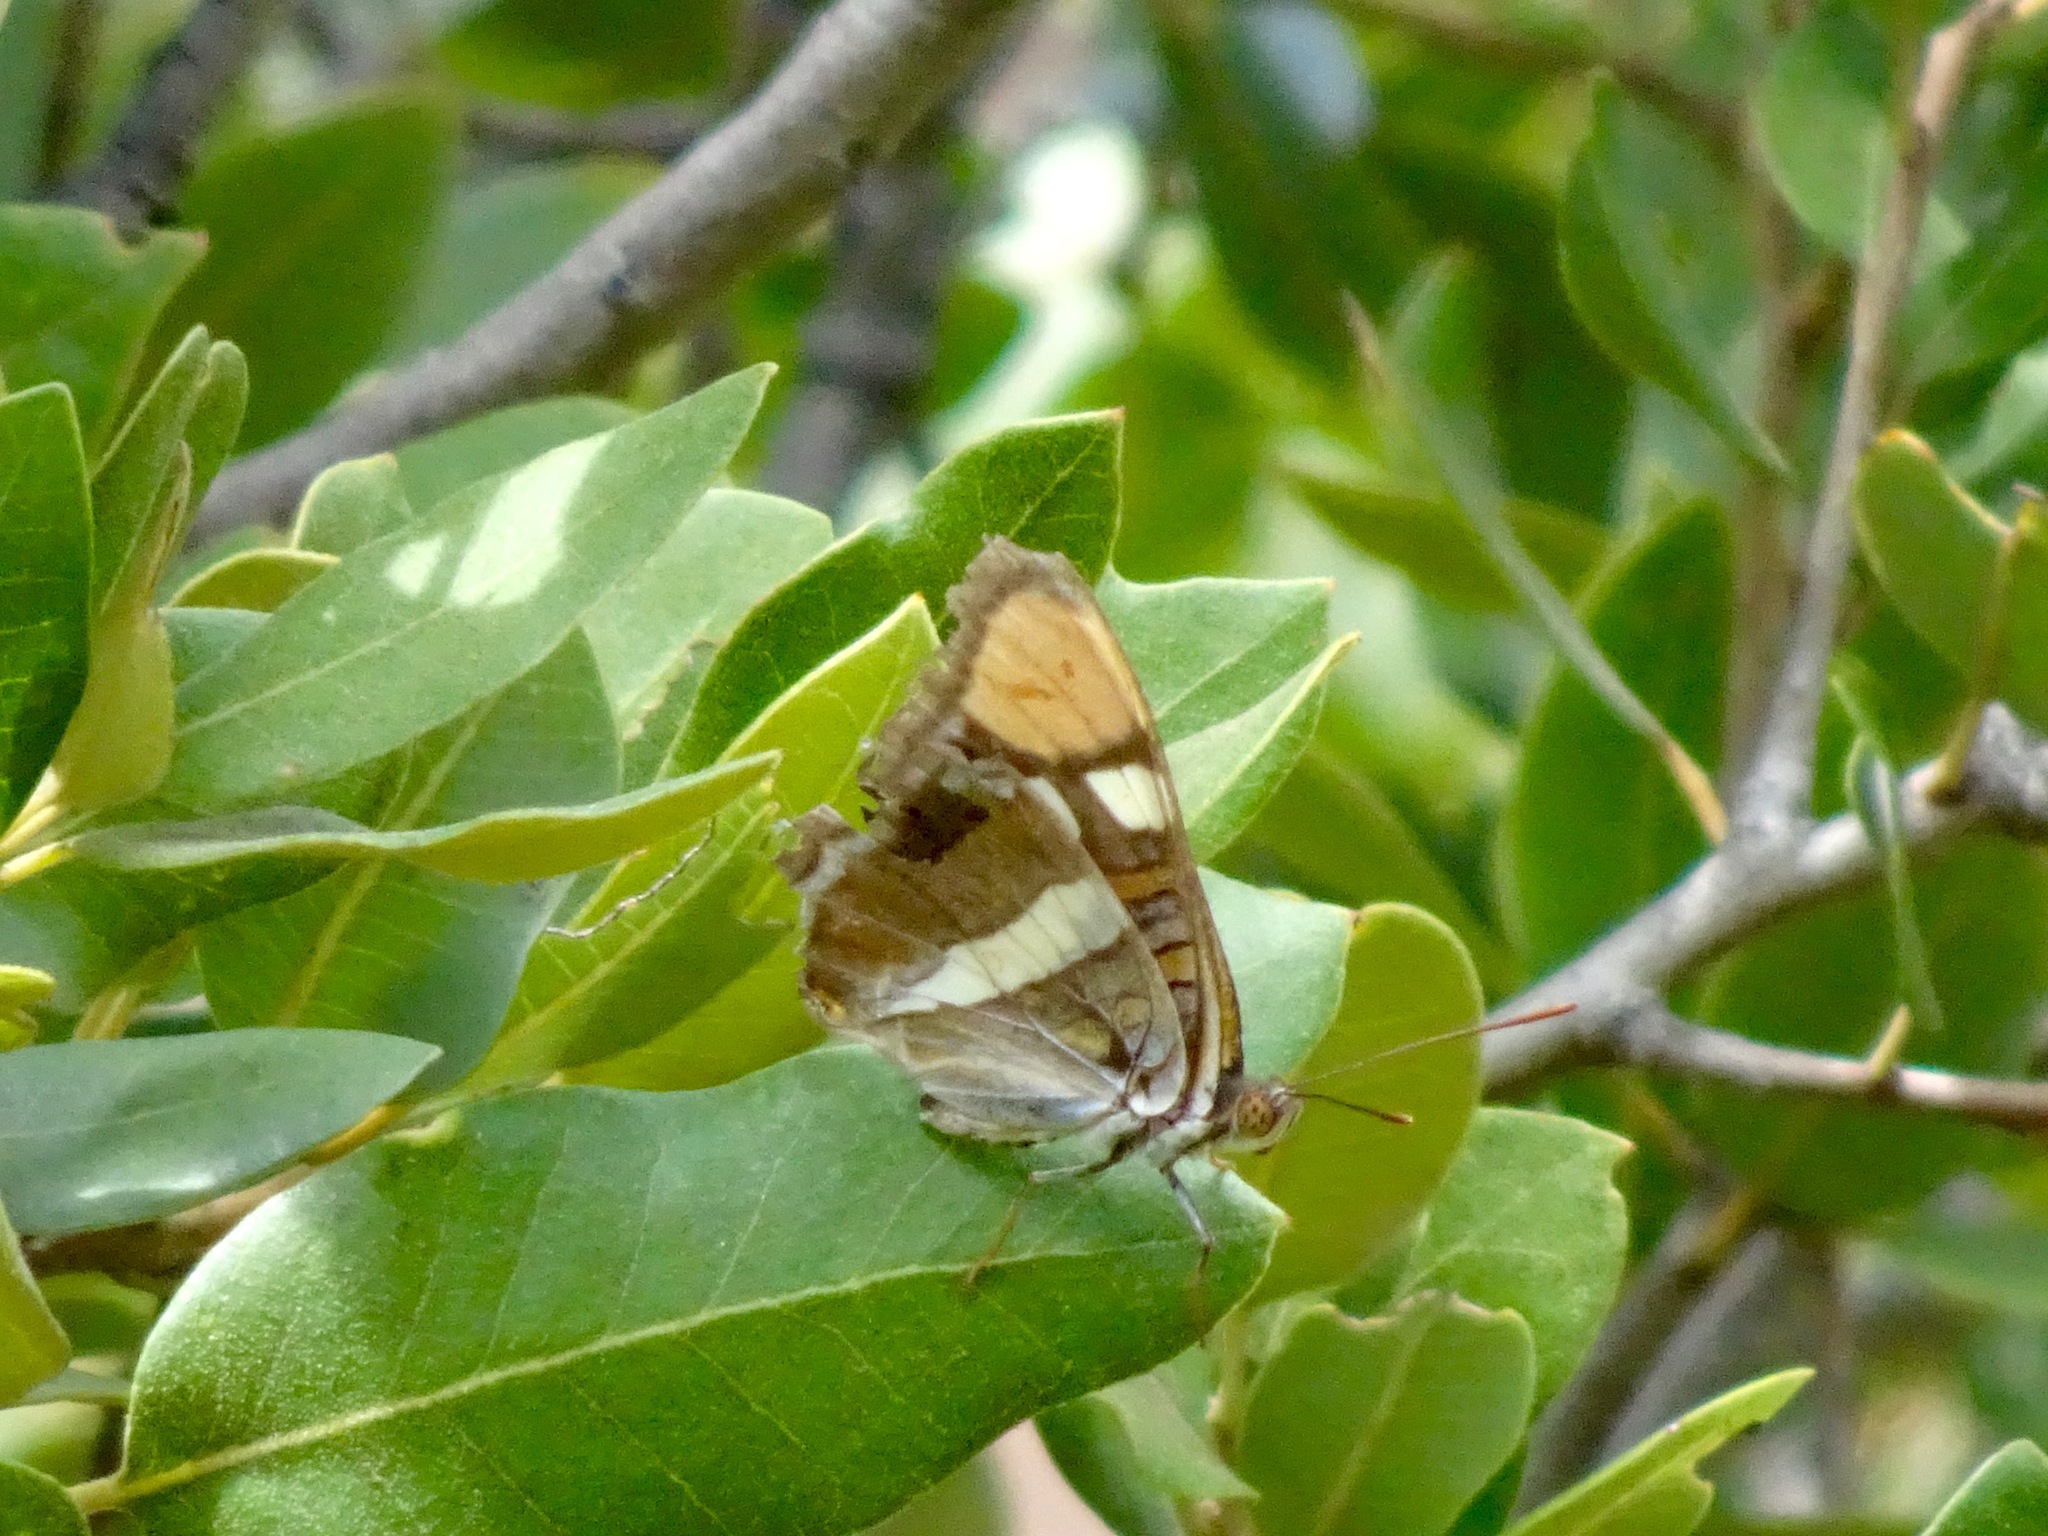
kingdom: Animalia
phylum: Arthropoda
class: Insecta
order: Lepidoptera
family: Nymphalidae
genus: Limenitis
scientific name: Limenitis bredowii
